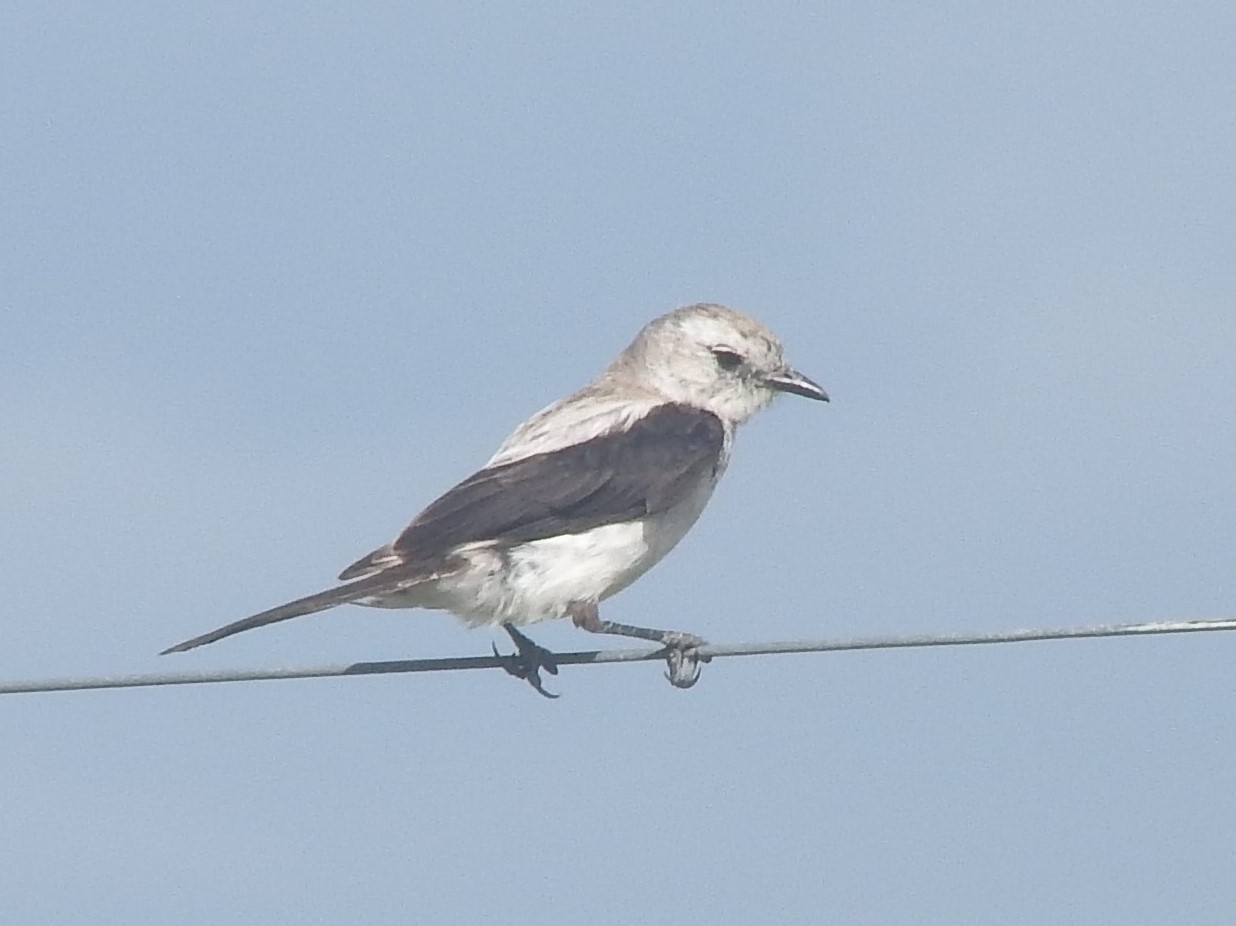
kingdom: Animalia
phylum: Chordata
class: Aves
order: Passeriformes
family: Tyrannidae
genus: Heteroxolmis
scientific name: Heteroxolmis dominicana
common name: Black-and-white monjita
